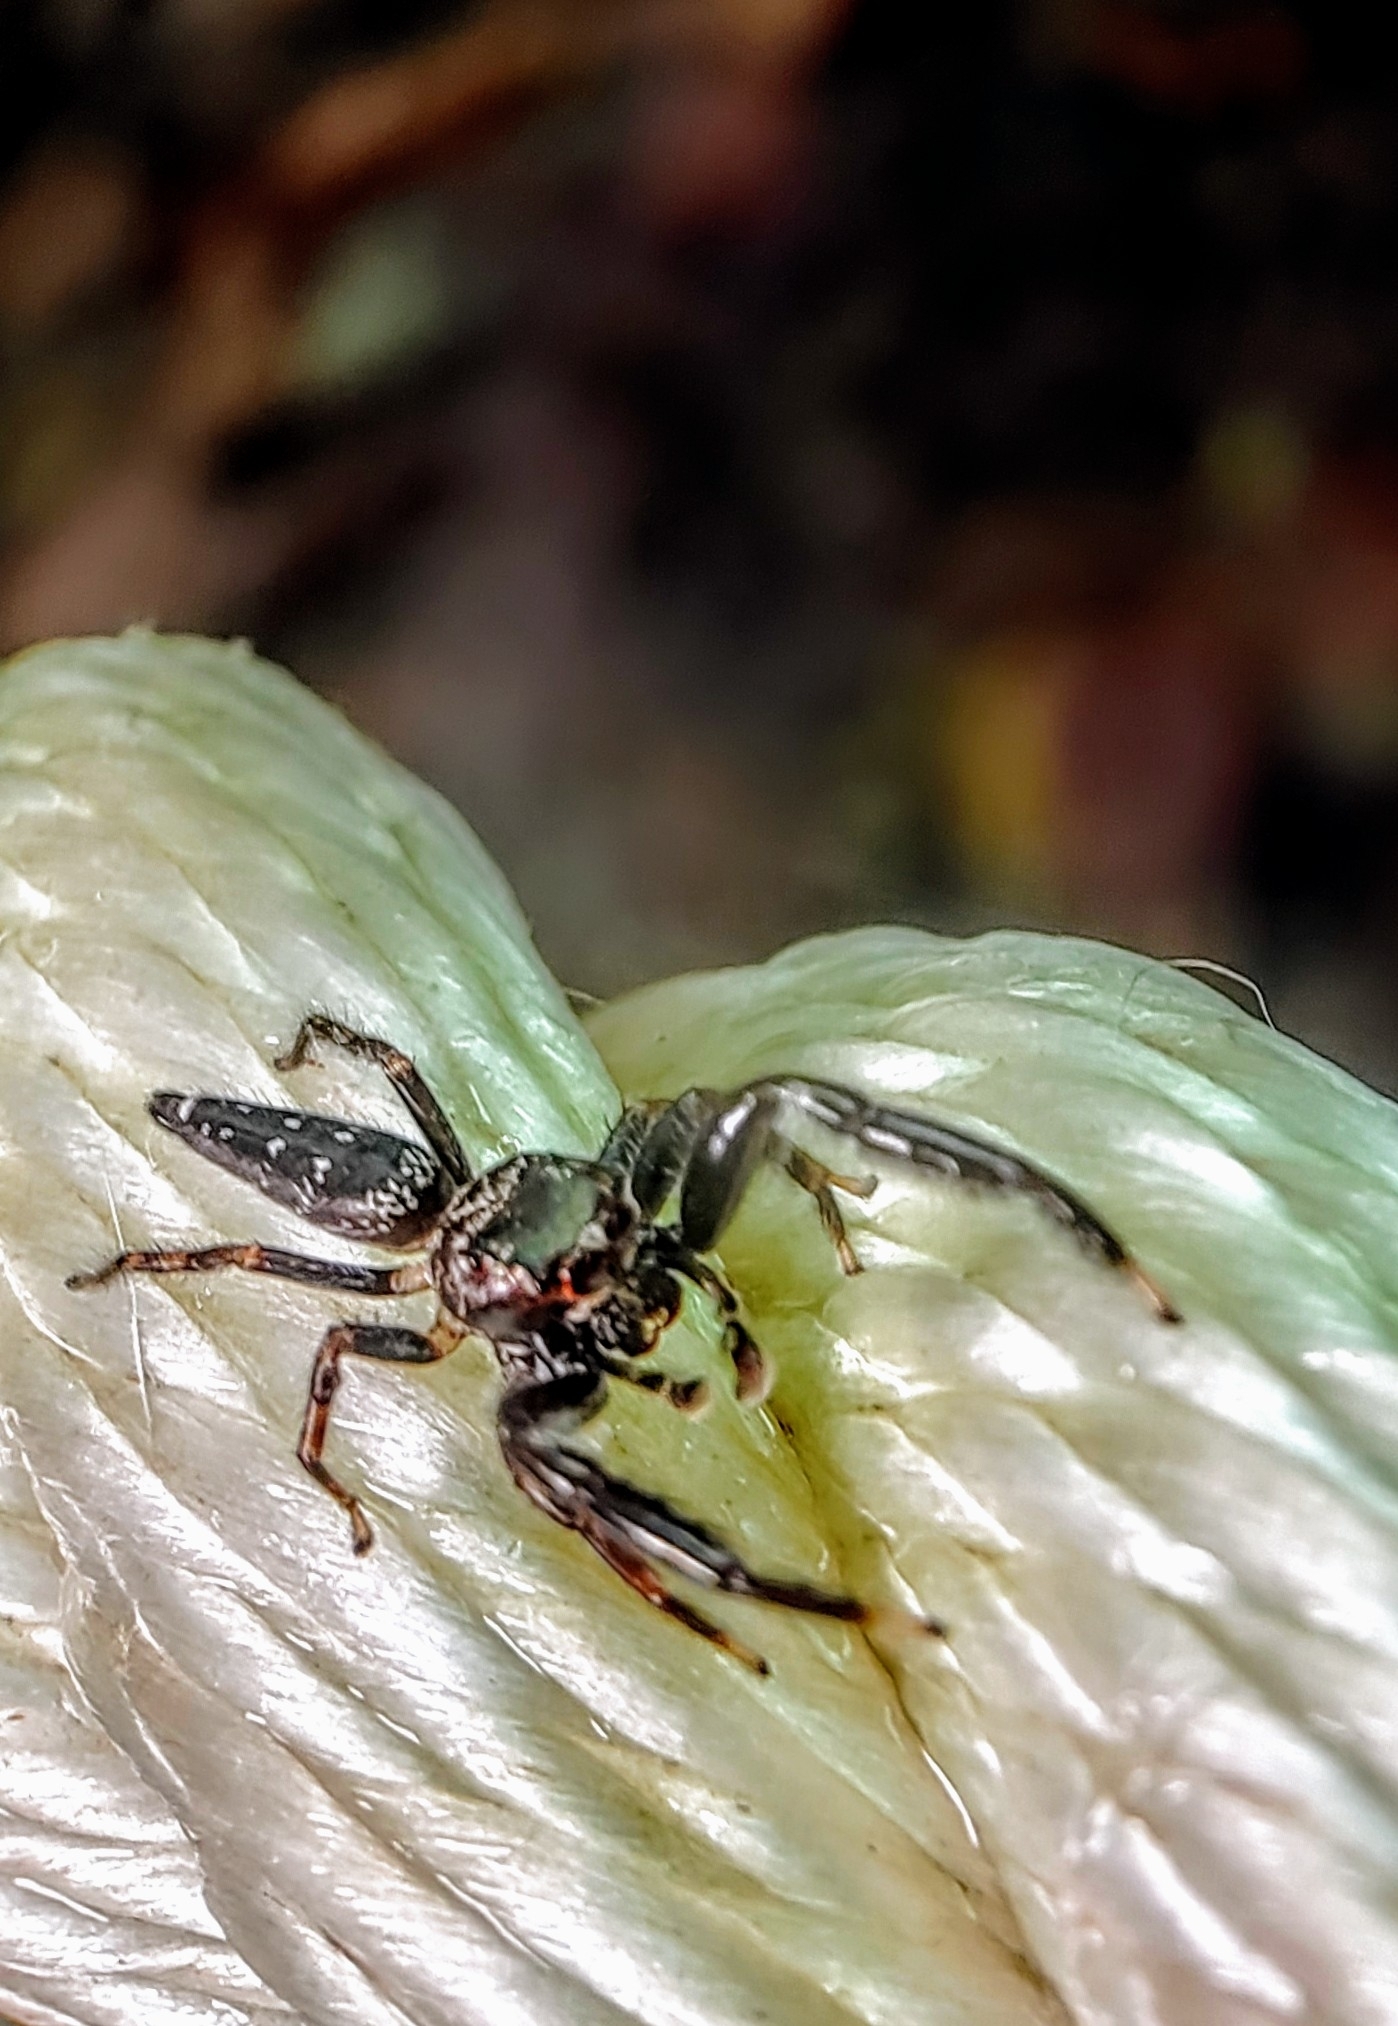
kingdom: Animalia
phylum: Arthropoda
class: Arachnida
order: Araneae
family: Salticidae
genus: Bavia
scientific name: Bavia sexpunctata
